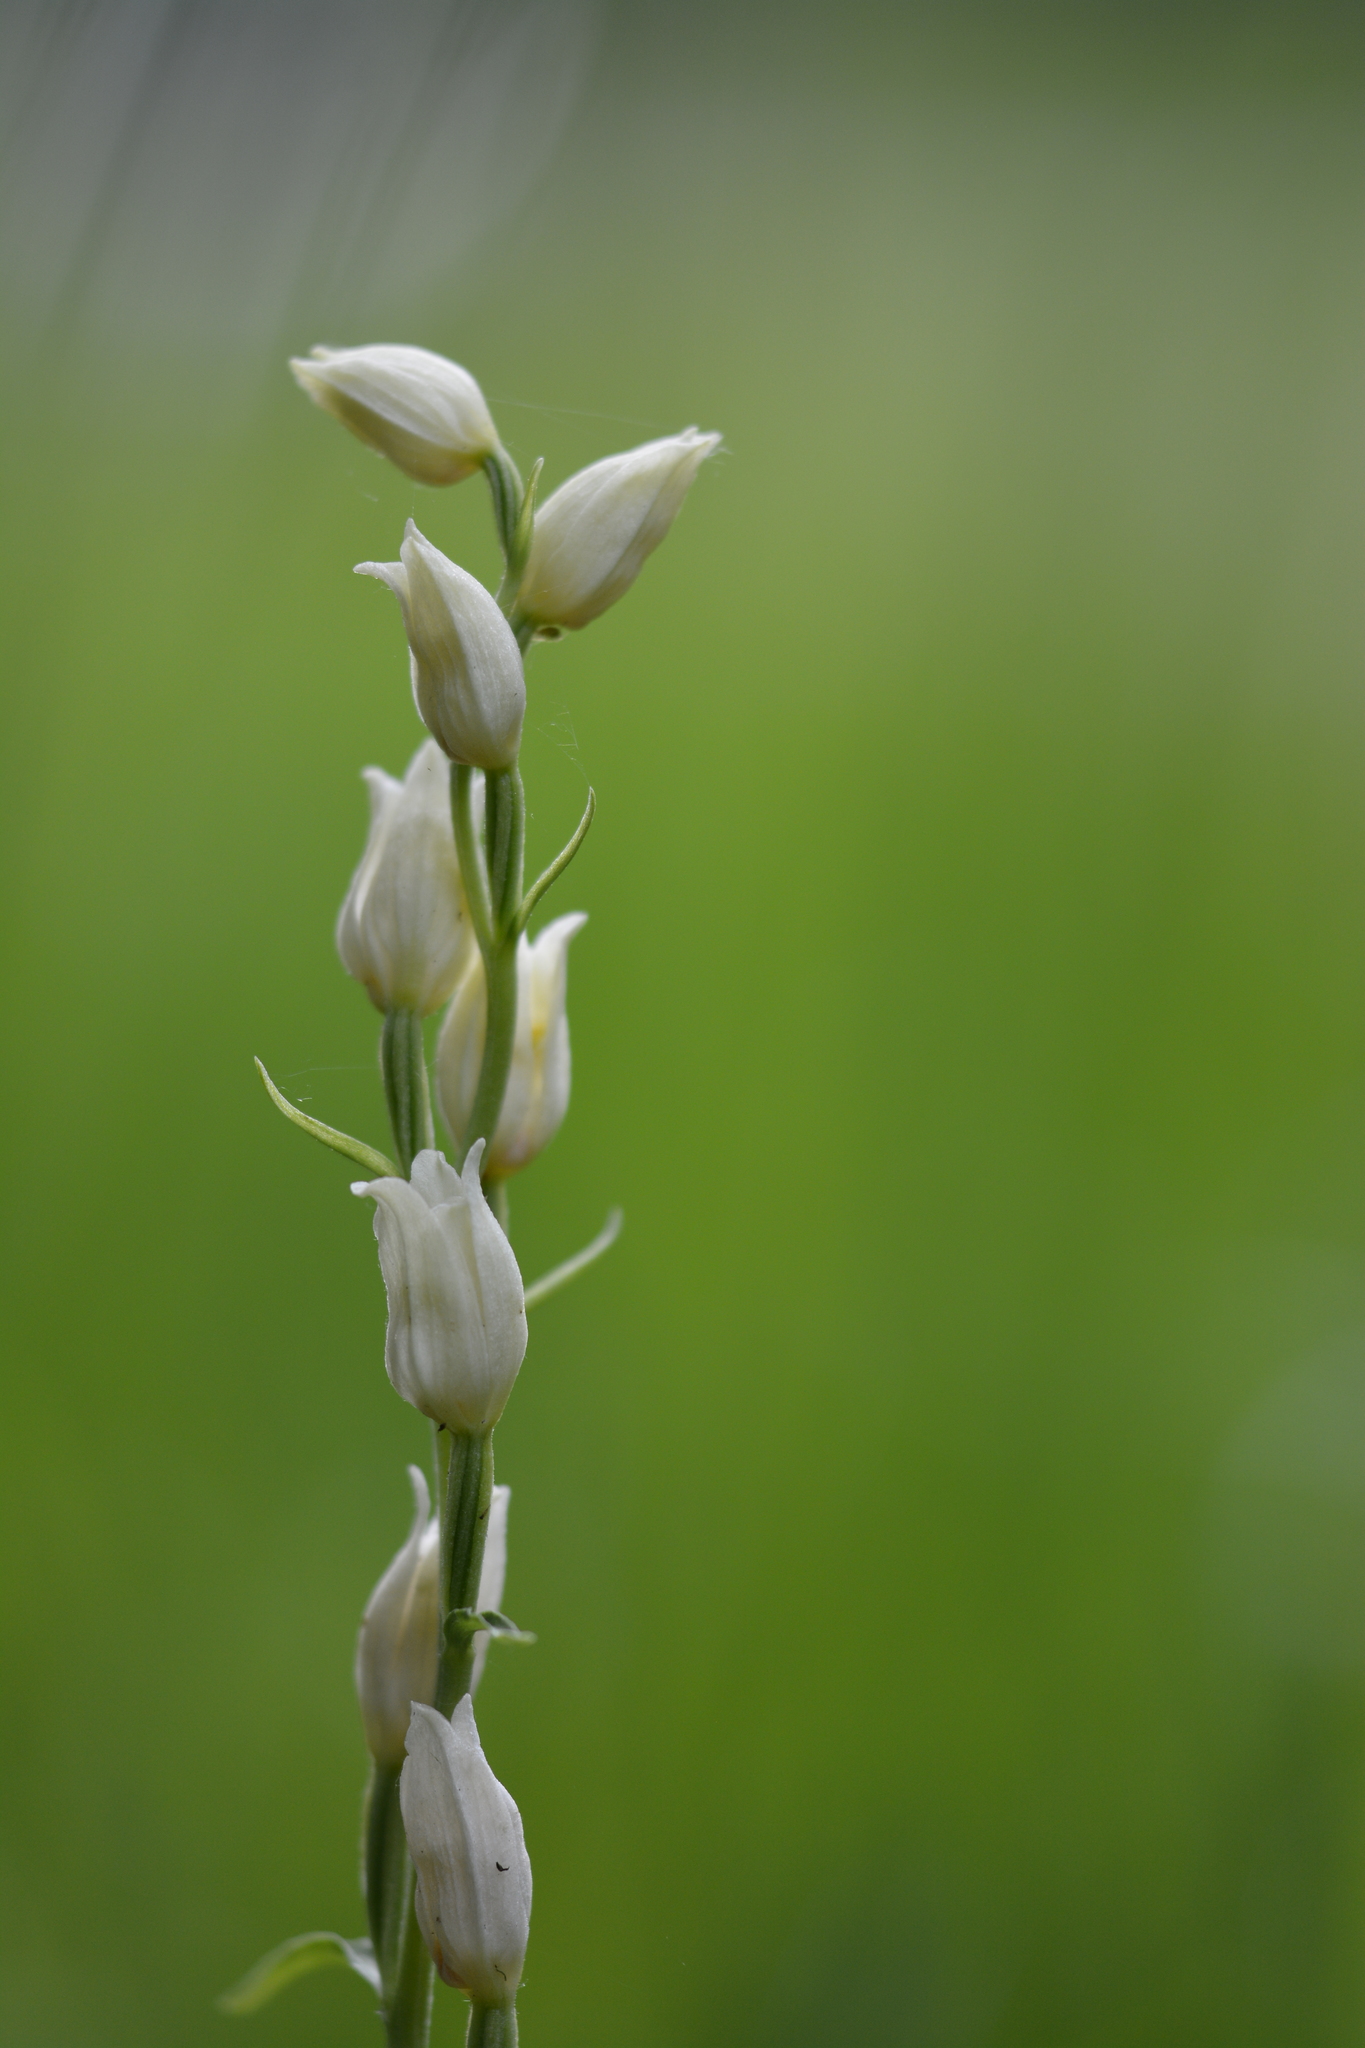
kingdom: Plantae
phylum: Tracheophyta
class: Liliopsida
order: Asparagales
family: Orchidaceae
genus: Cephalanthera
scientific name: Cephalanthera damasonium
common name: White helleborine
